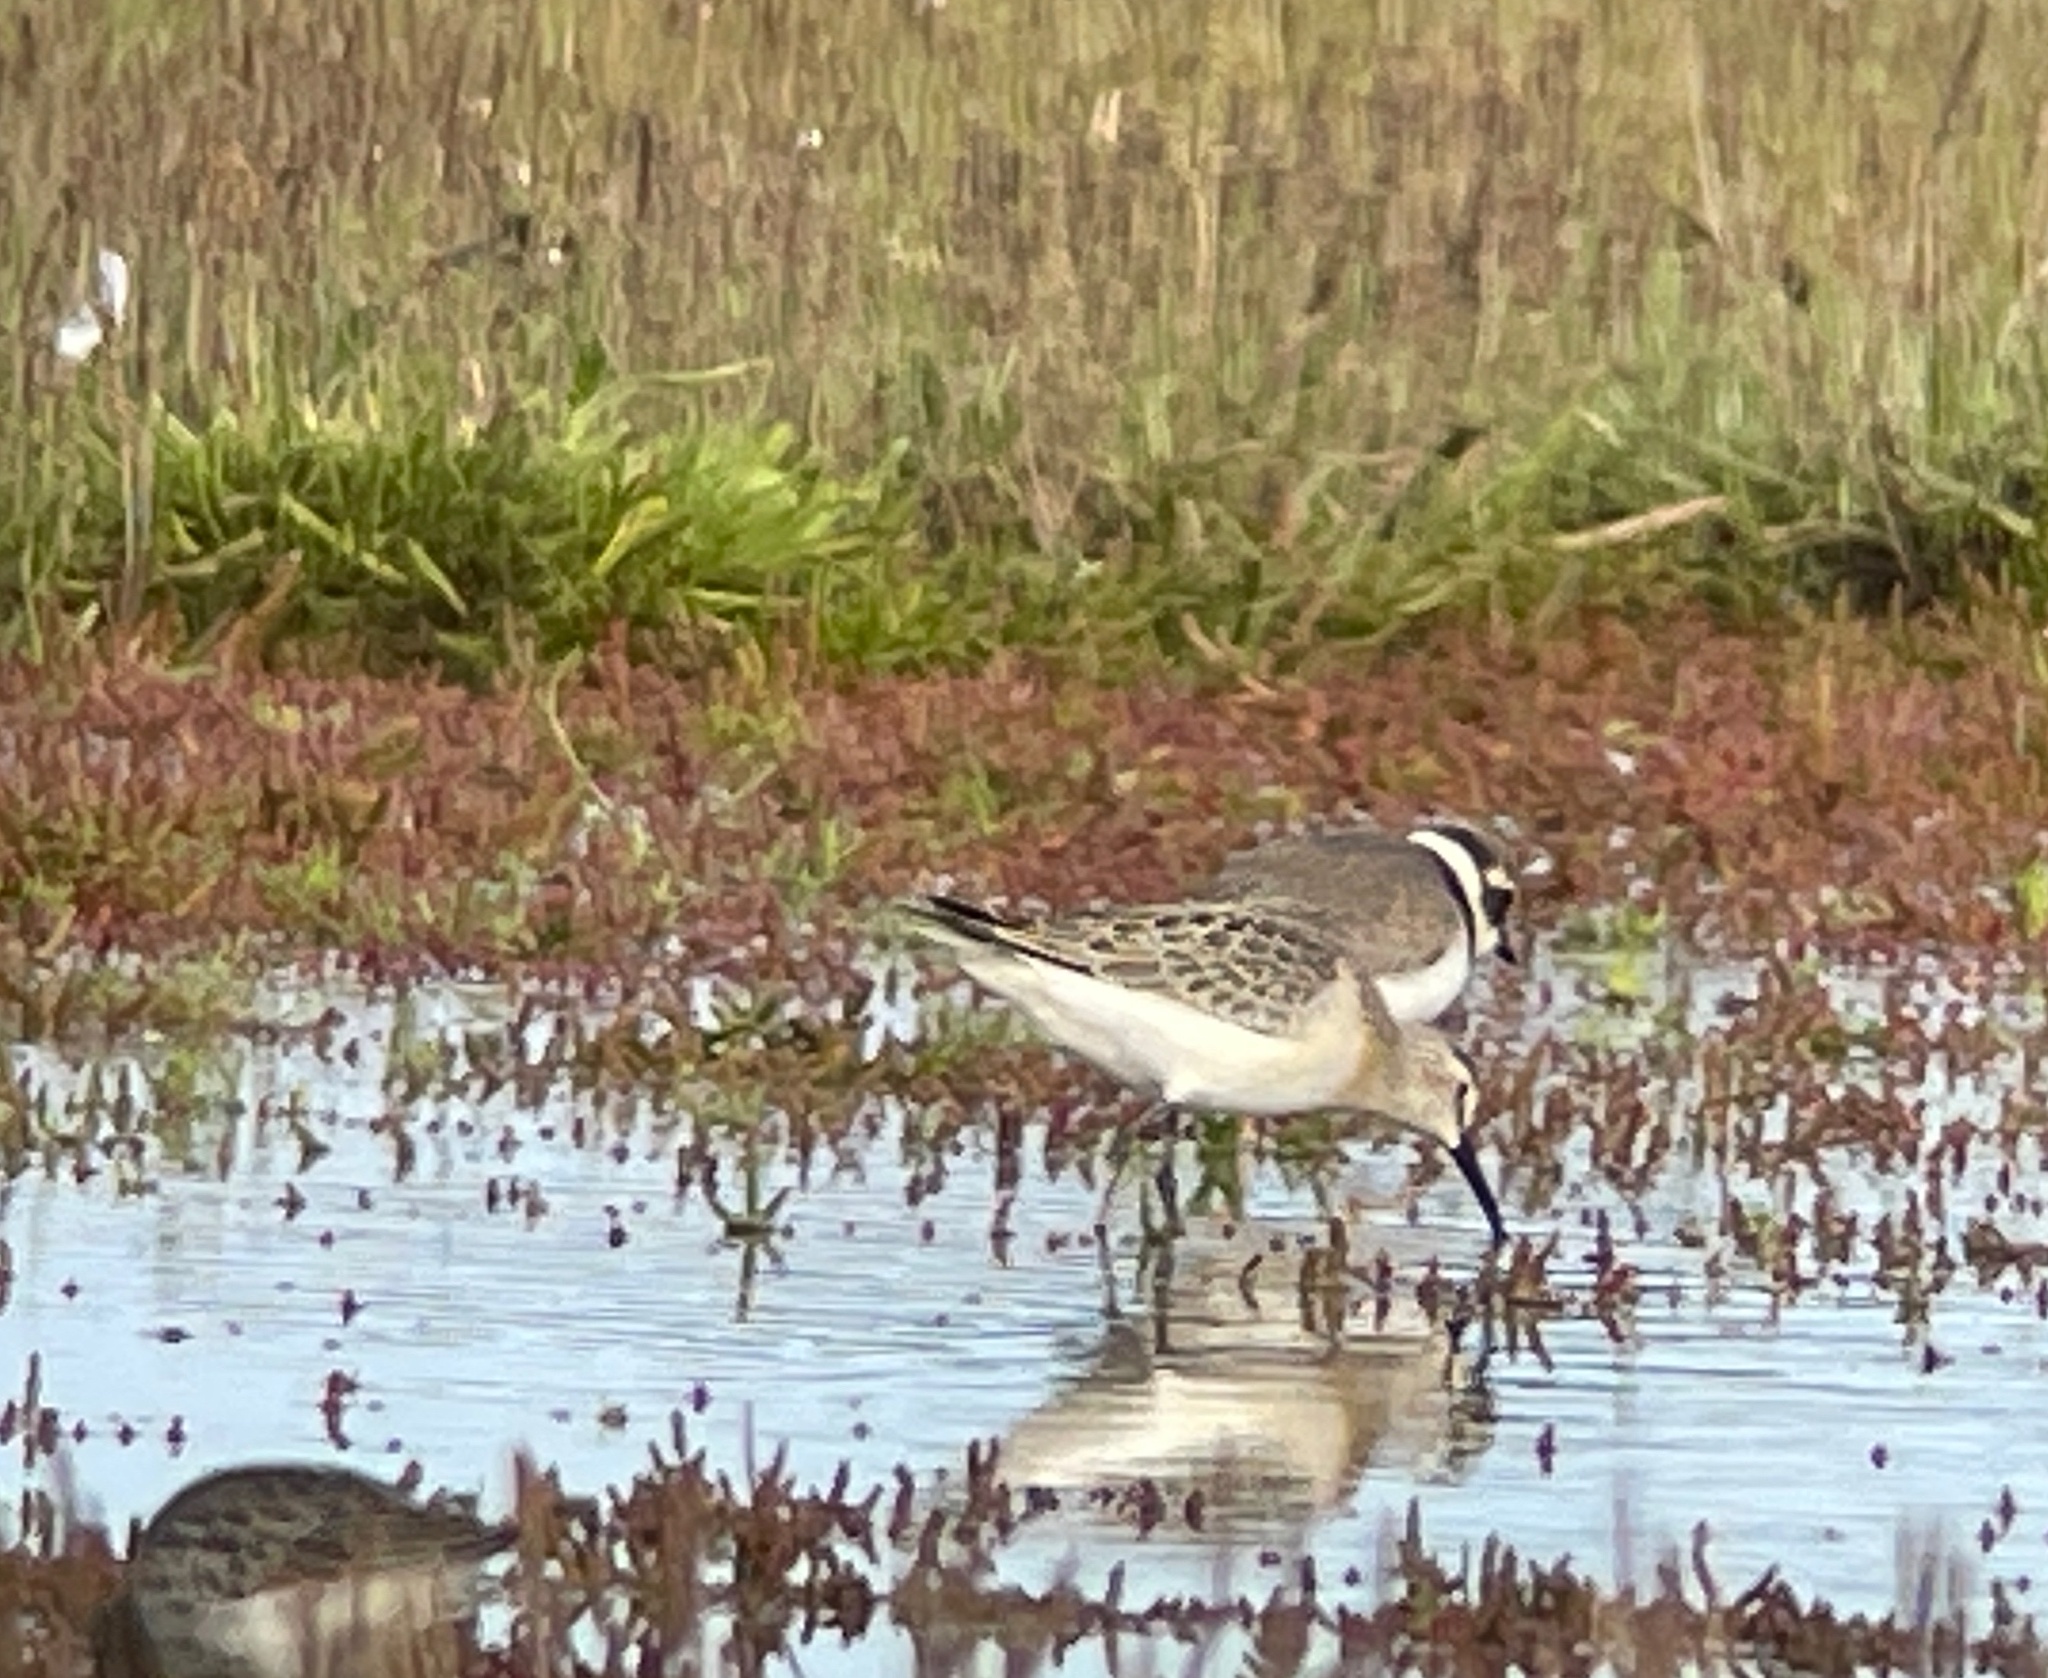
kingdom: Animalia
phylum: Chordata
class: Aves
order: Charadriiformes
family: Scolopacidae
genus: Calidris
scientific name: Calidris ferruginea
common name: Curlew sandpiper
